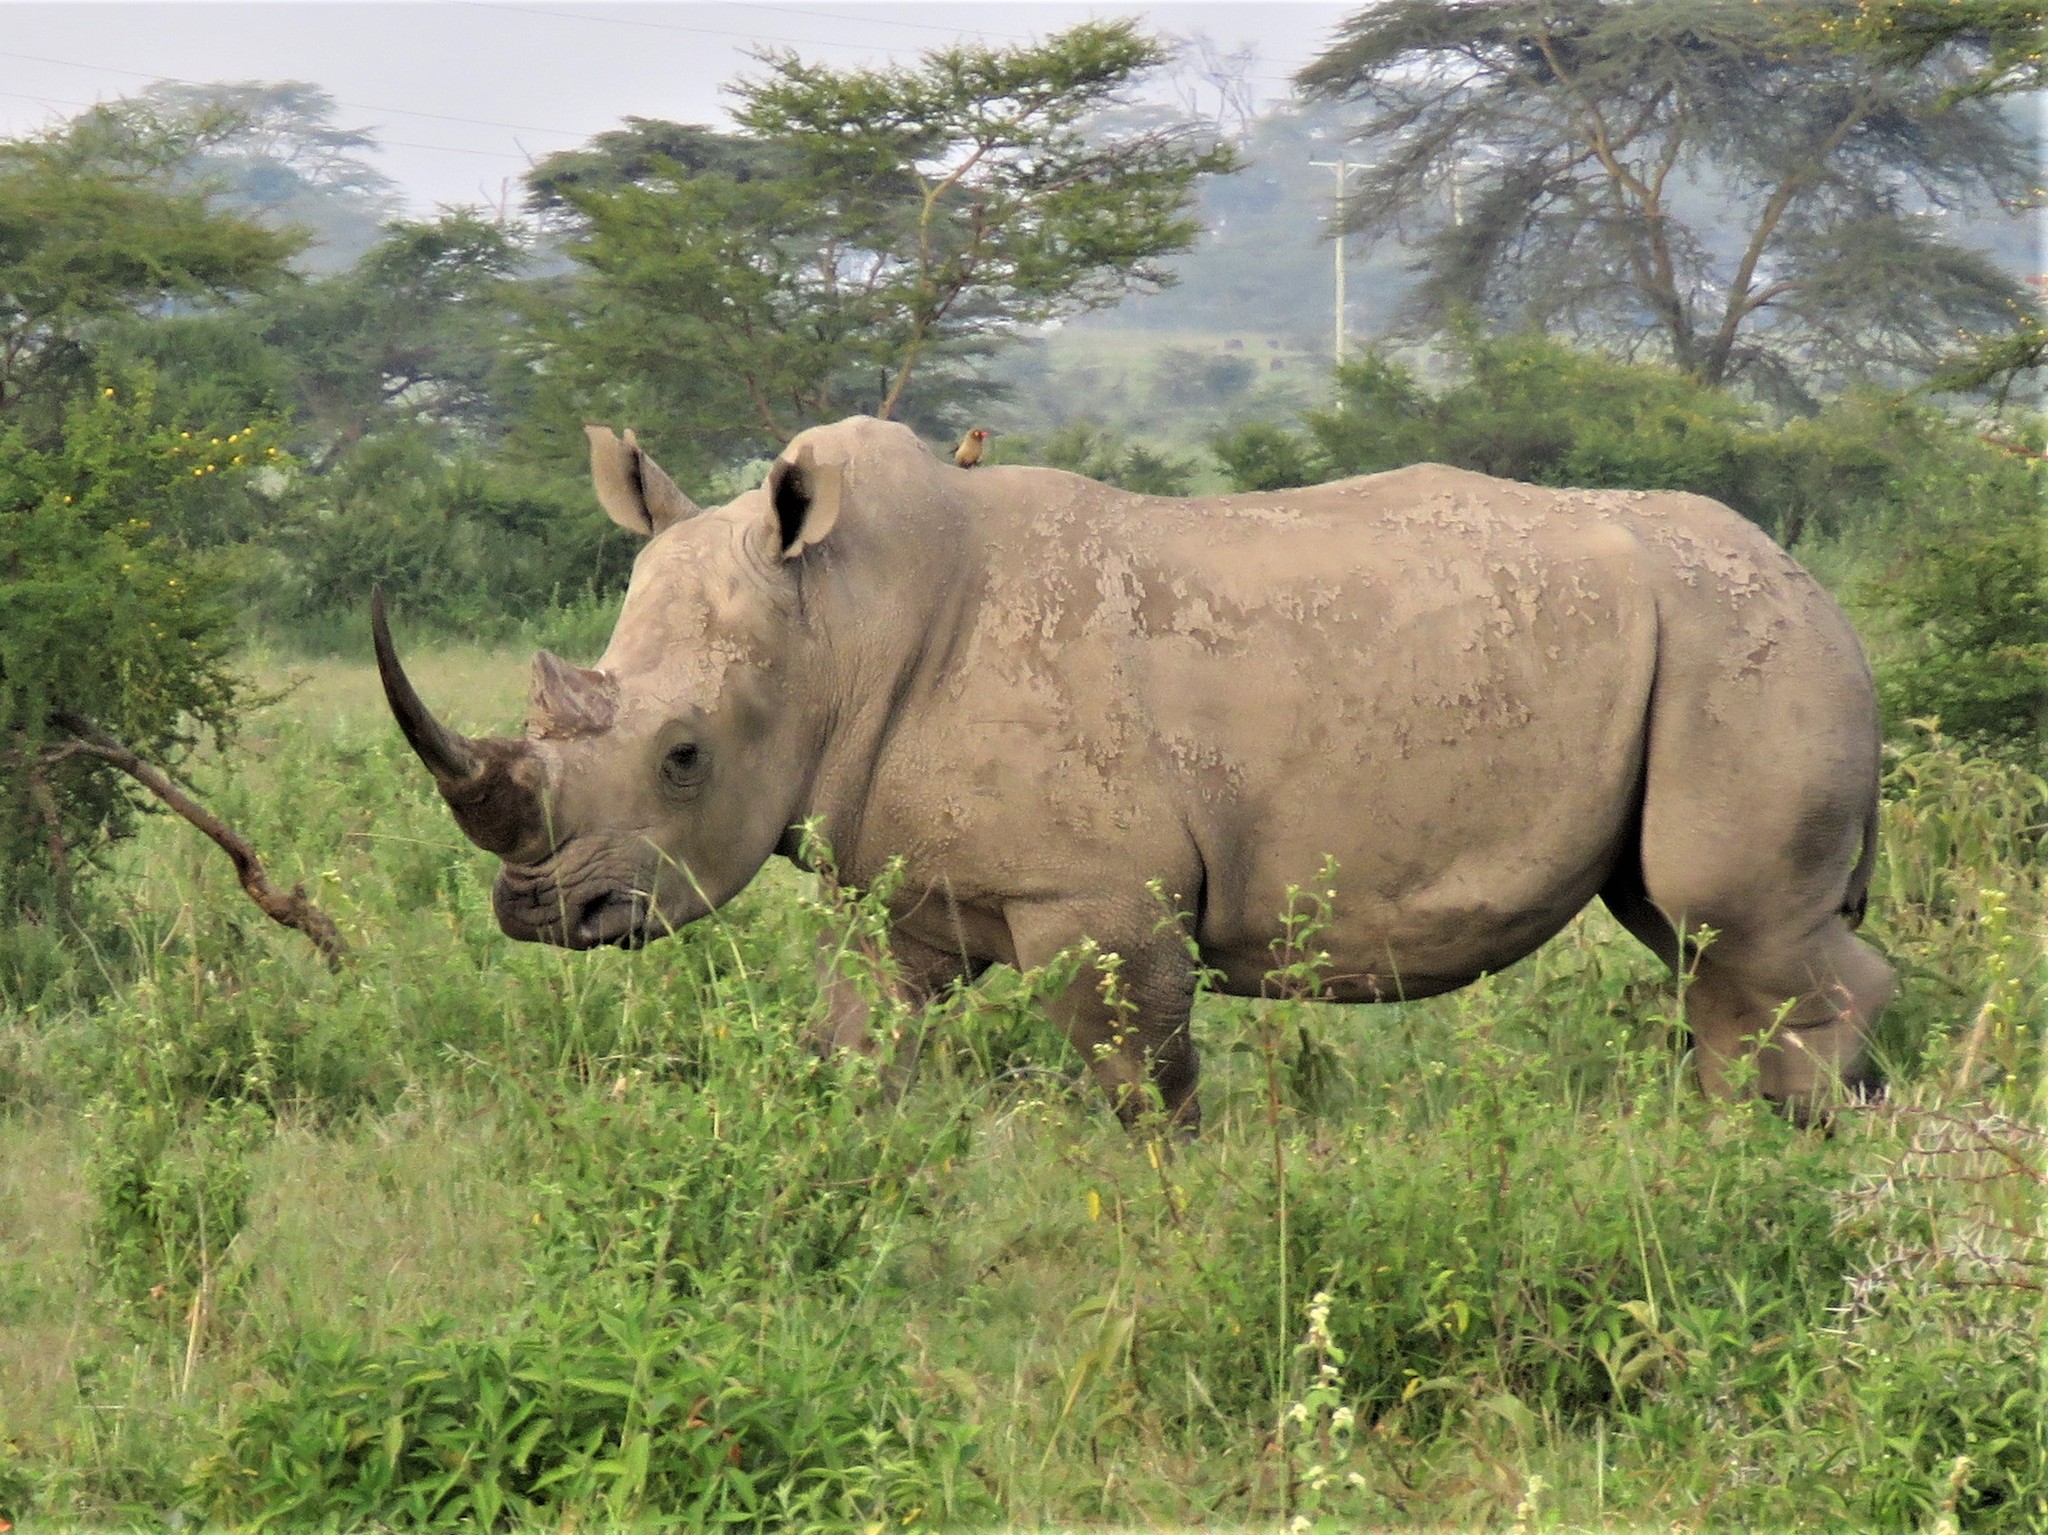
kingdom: Animalia
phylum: Chordata
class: Mammalia
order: Perissodactyla
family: Rhinocerotidae
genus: Ceratotherium
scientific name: Ceratotherium simum
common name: White rhinoceros
